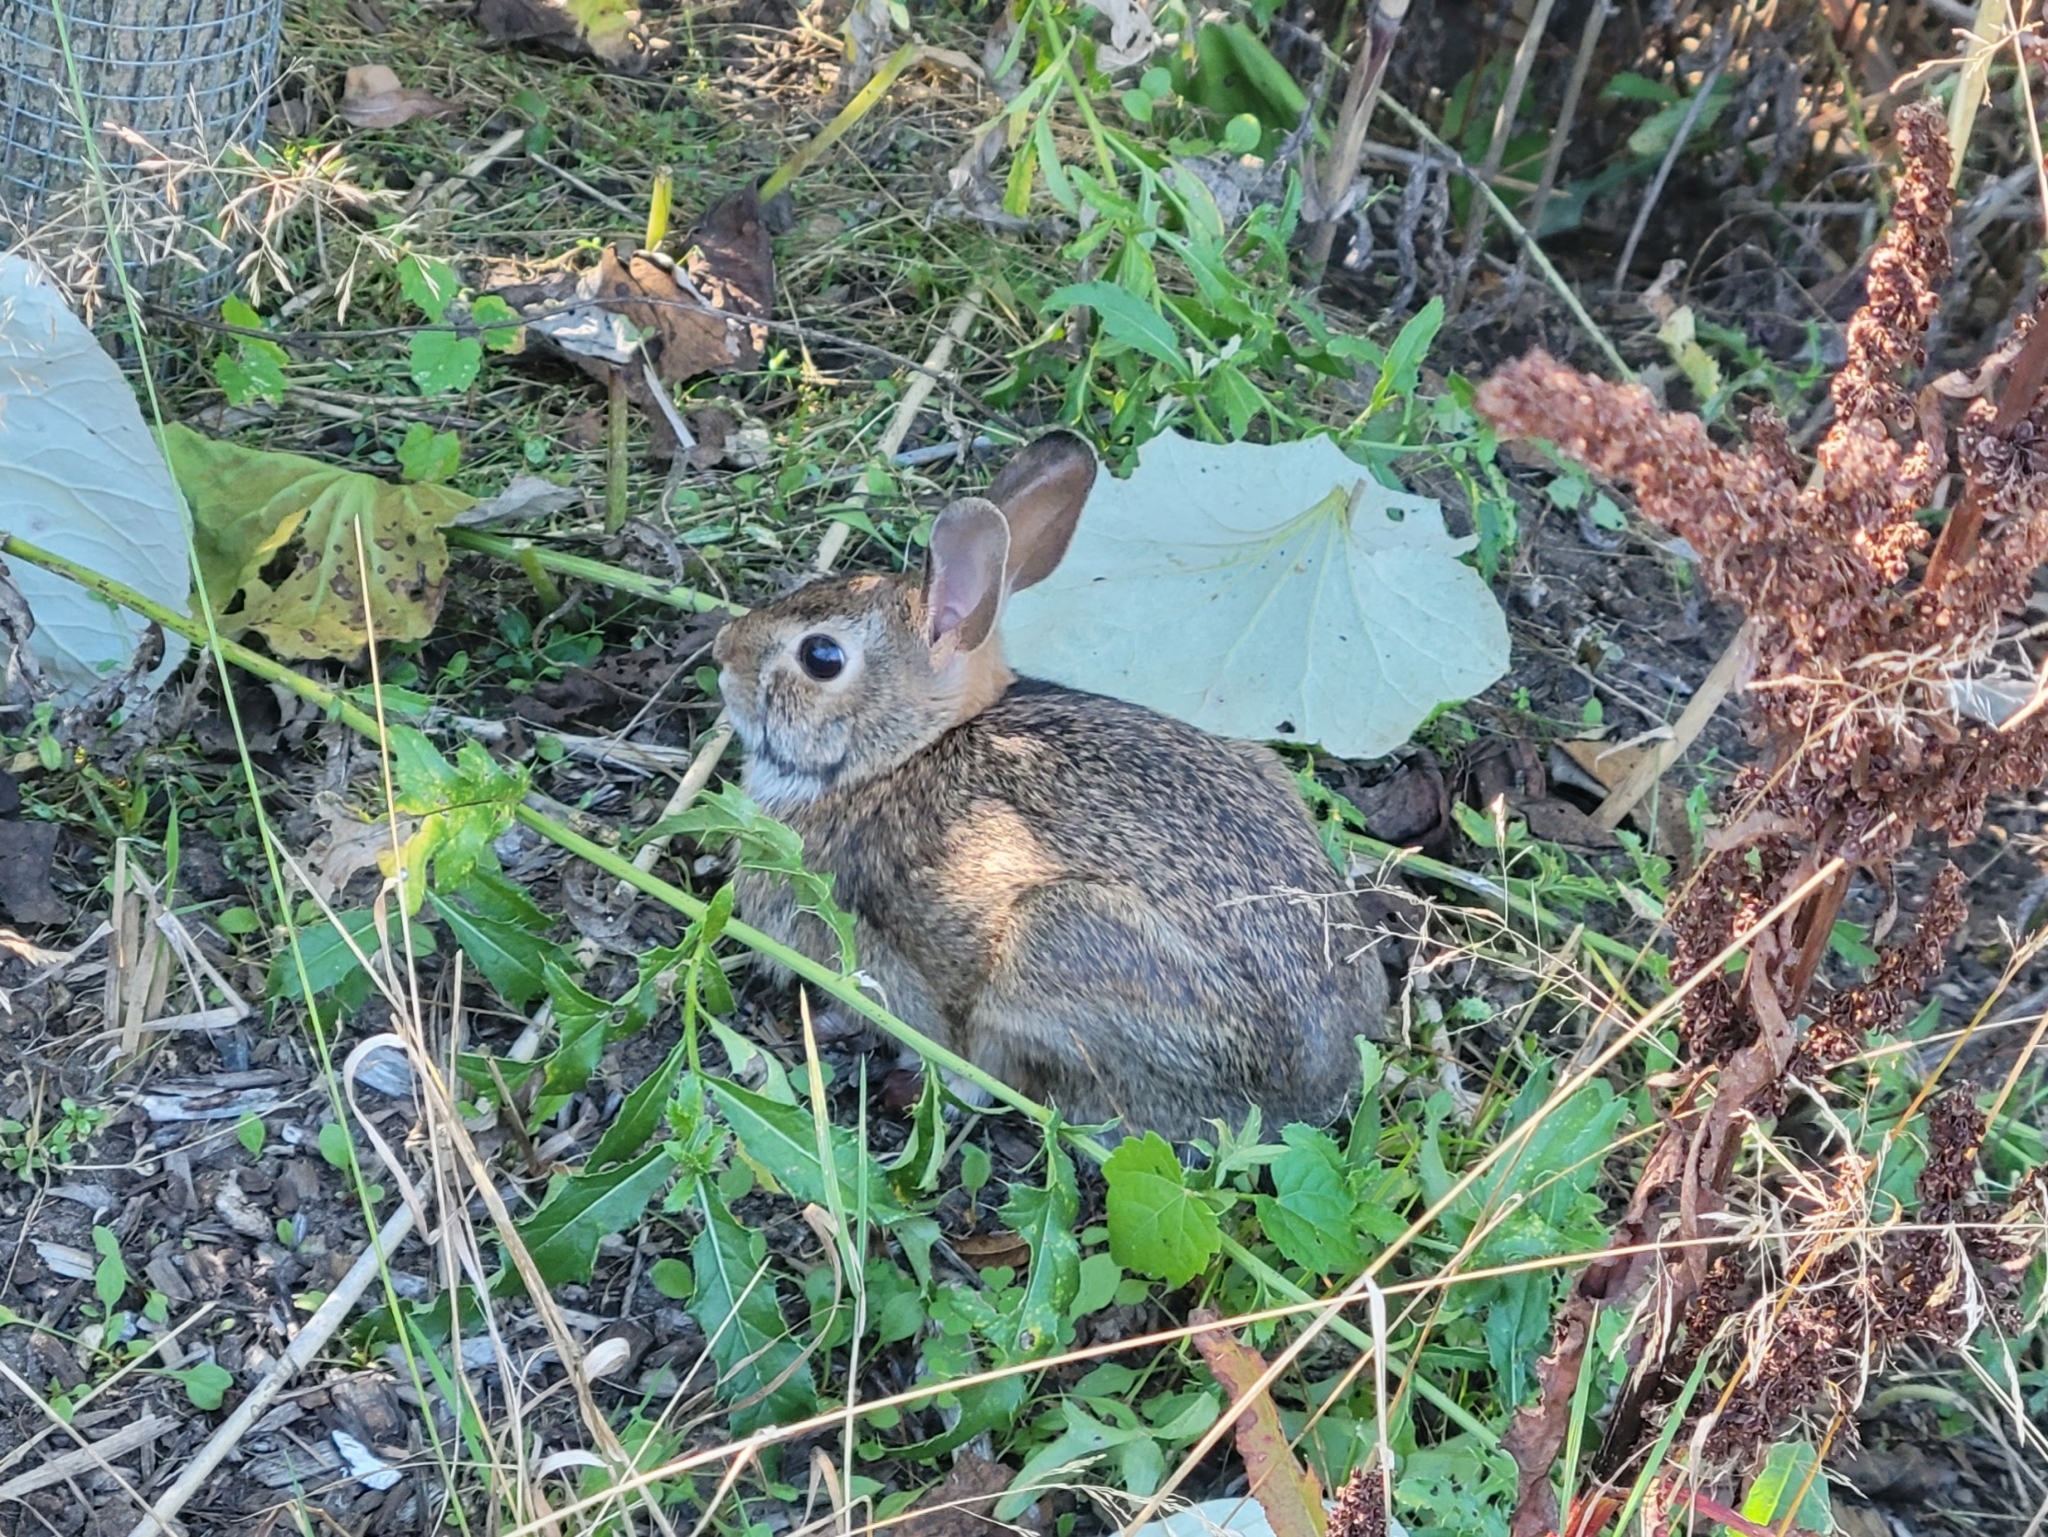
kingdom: Animalia
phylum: Chordata
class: Mammalia
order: Lagomorpha
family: Leporidae
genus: Sylvilagus
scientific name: Sylvilagus floridanus
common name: Eastern cottontail
